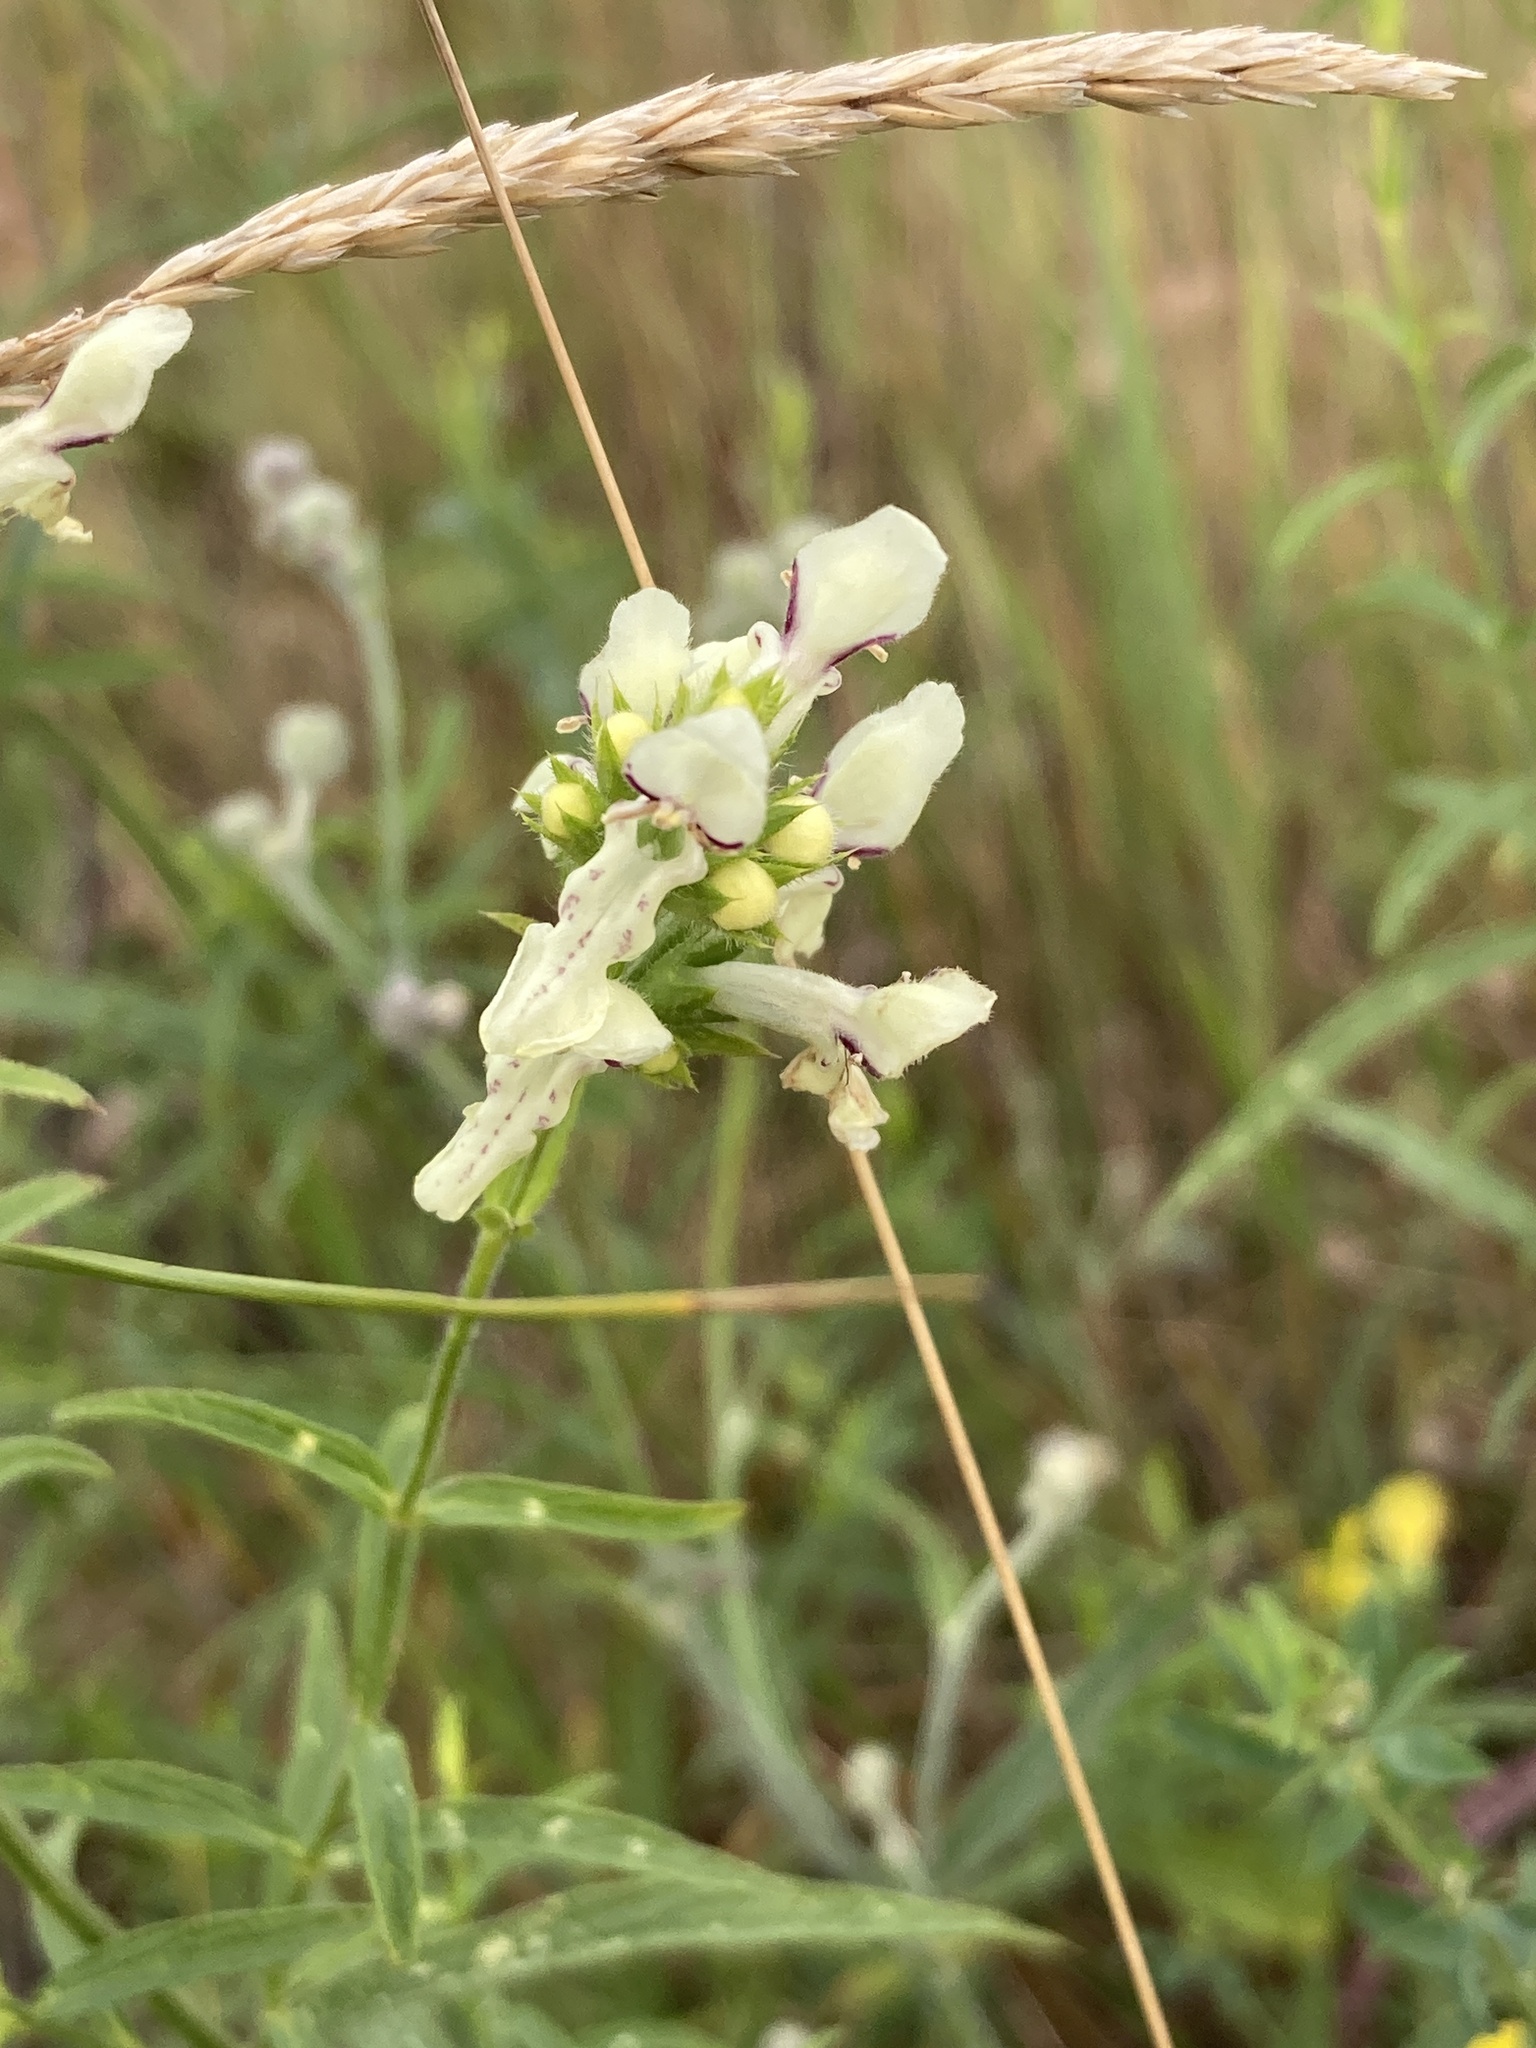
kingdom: Plantae
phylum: Tracheophyta
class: Magnoliopsida
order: Lamiales
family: Lamiaceae
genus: Stachys
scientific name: Stachys recta
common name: Perennial yellow-woundwort
